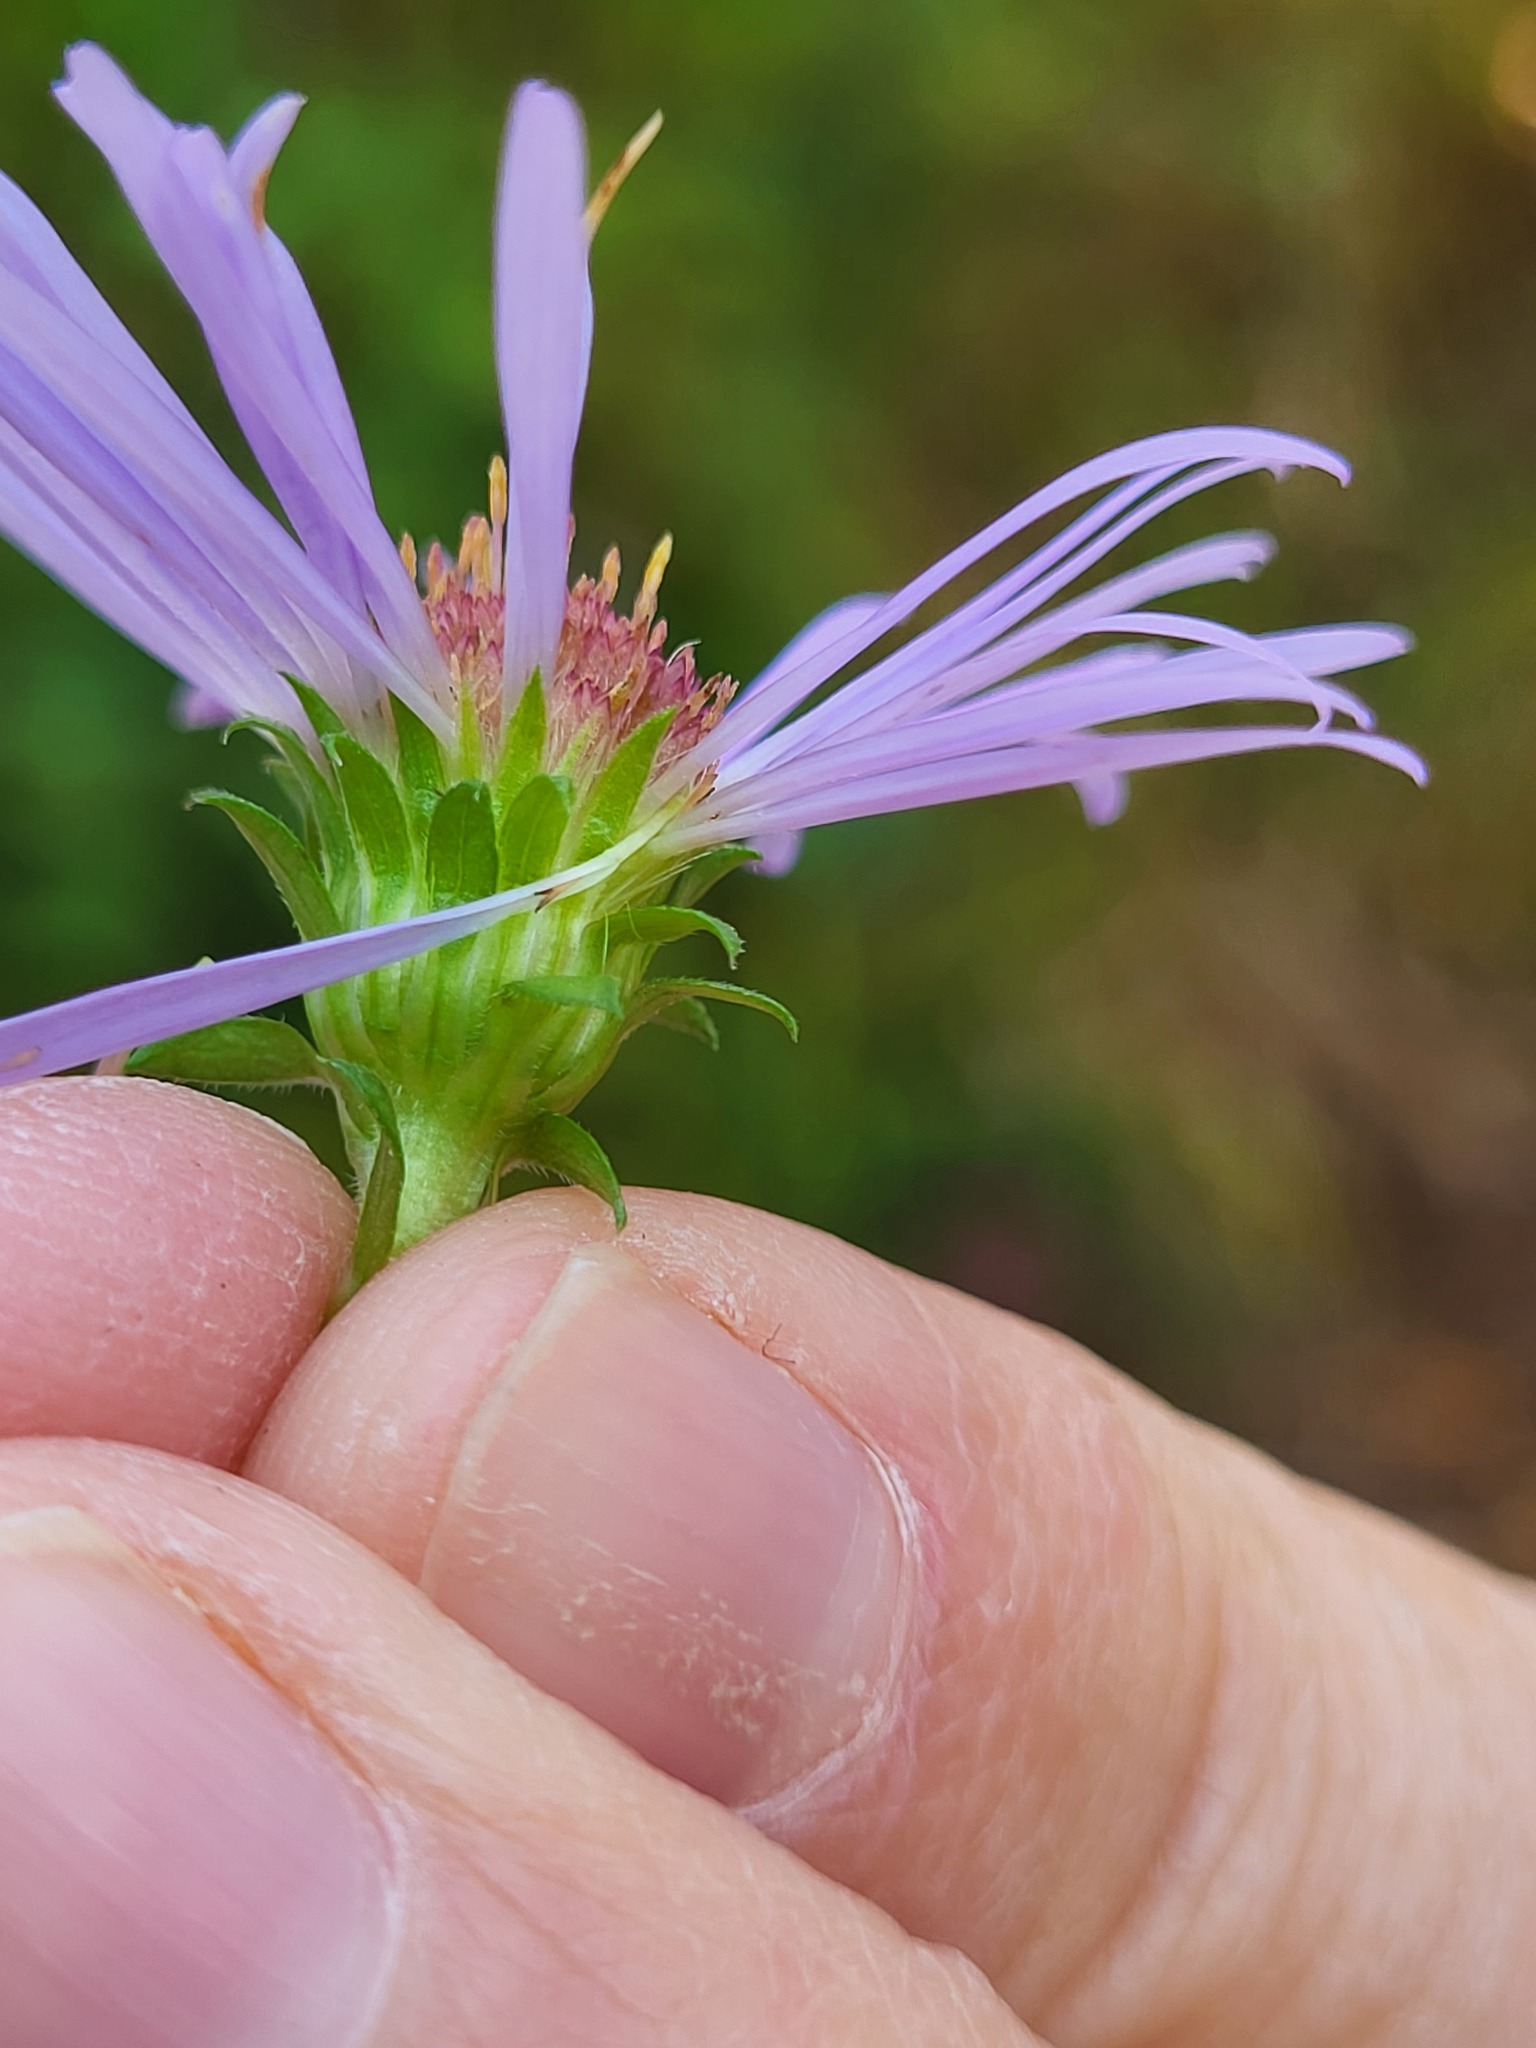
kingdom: Plantae
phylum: Tracheophyta
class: Magnoliopsida
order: Asterales
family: Asteraceae
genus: Symphyotrichum
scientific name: Symphyotrichum puniceum
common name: Bog aster
